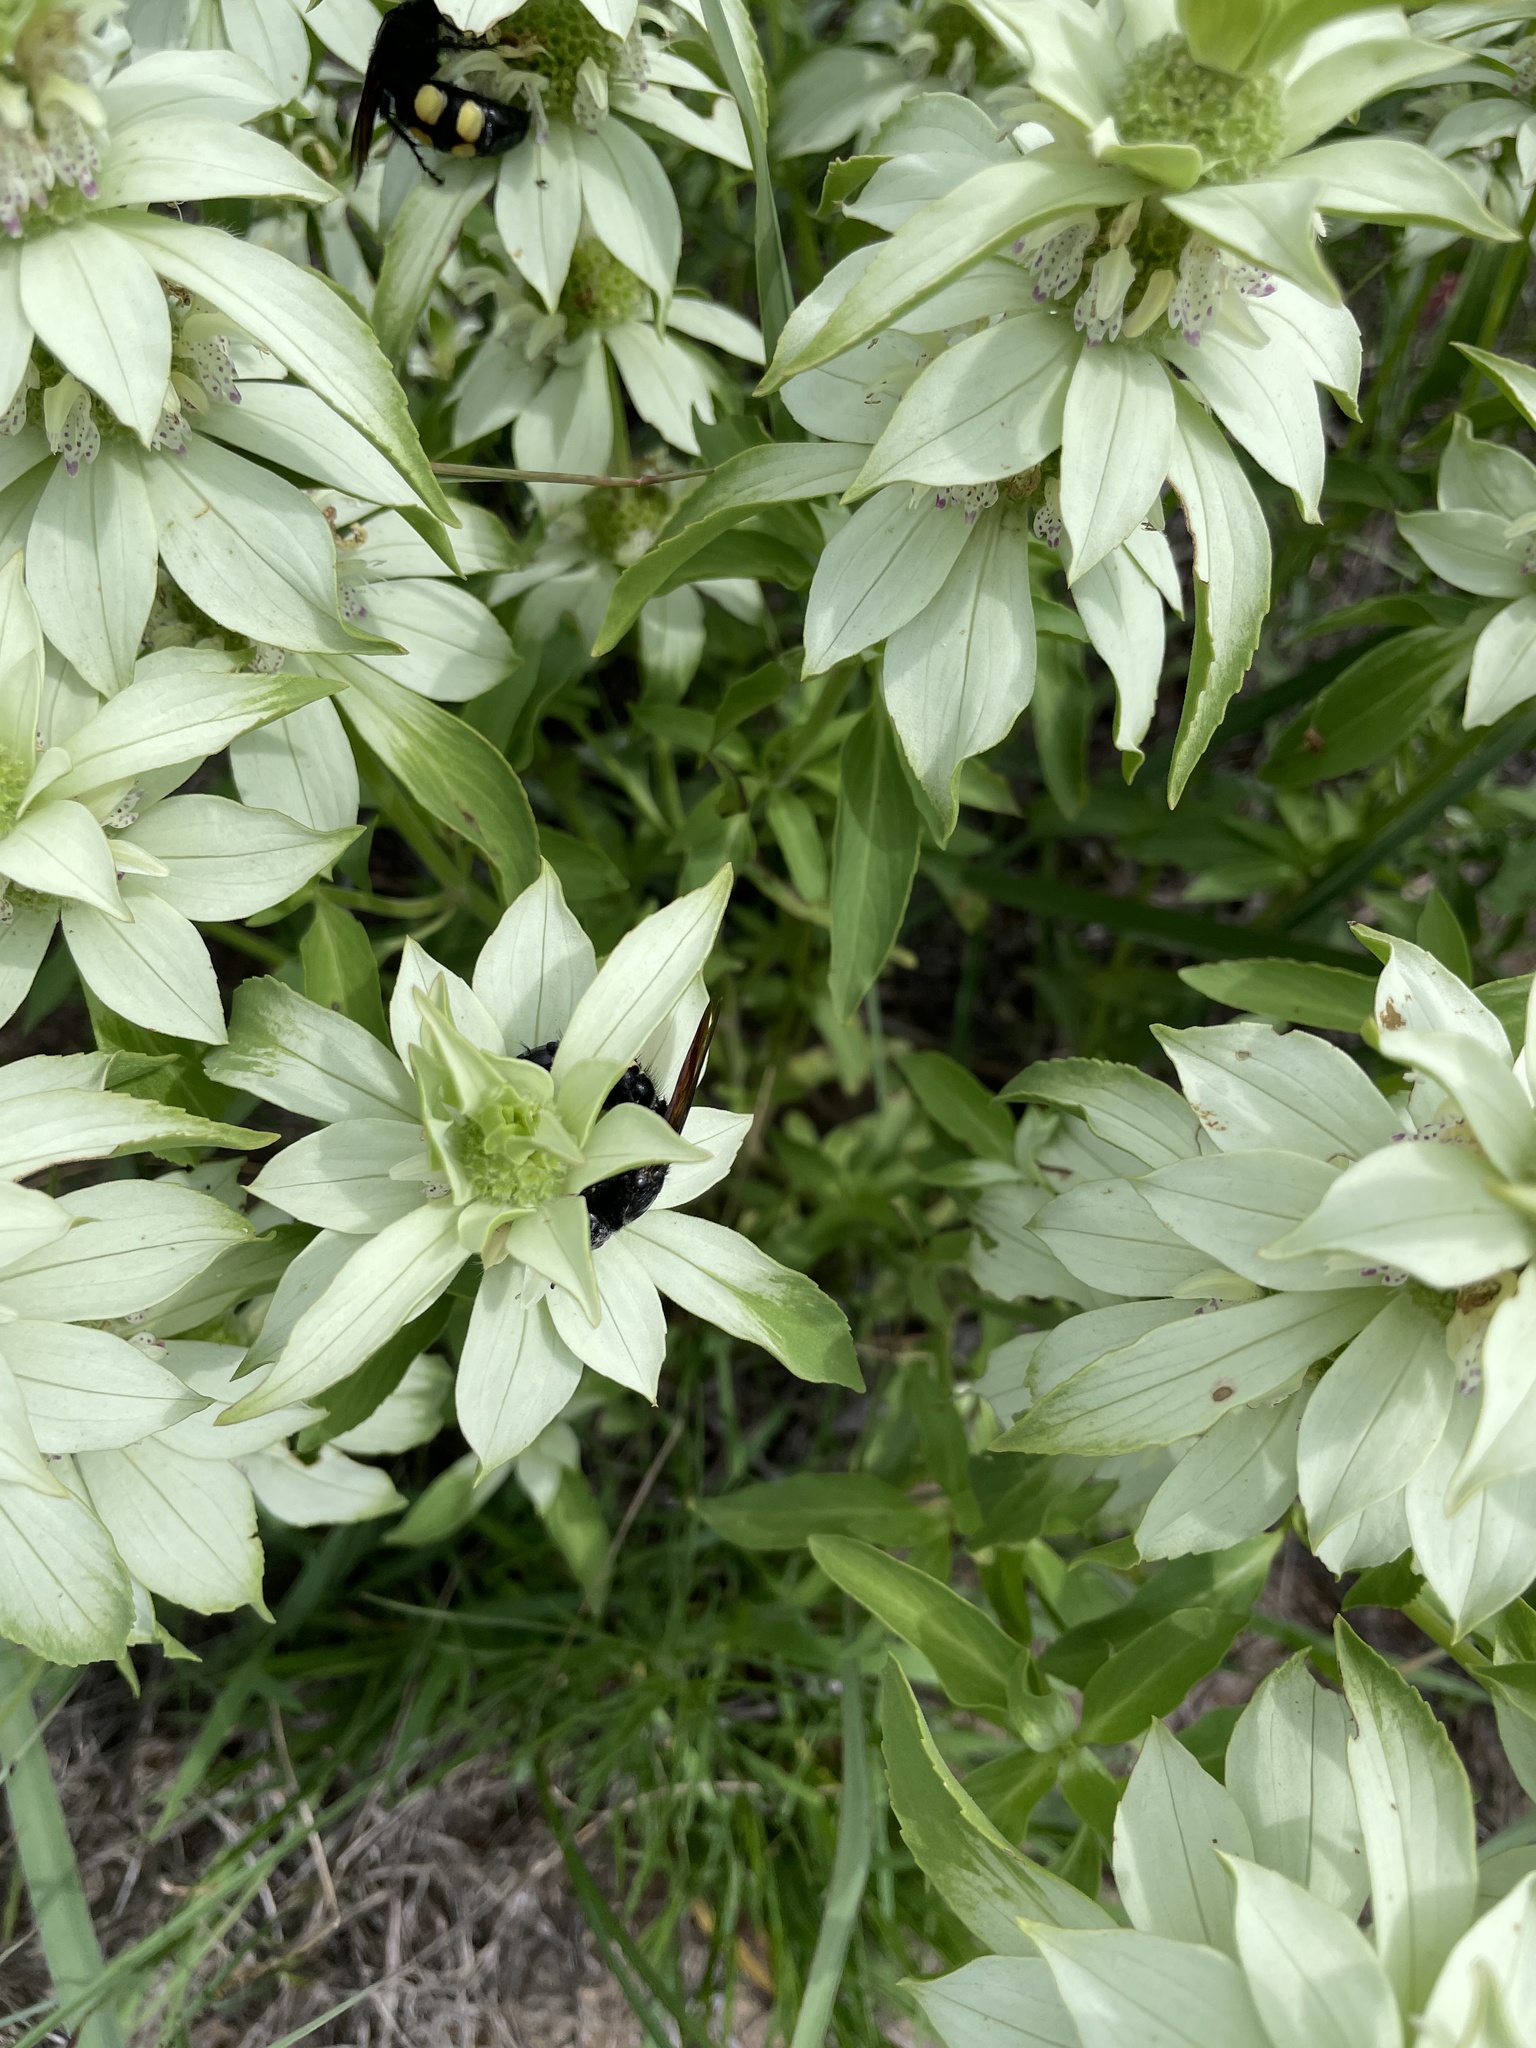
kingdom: Plantae
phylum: Tracheophyta
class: Magnoliopsida
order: Lamiales
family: Lamiaceae
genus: Monarda
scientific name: Monarda punctata
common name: Dotted monarda
